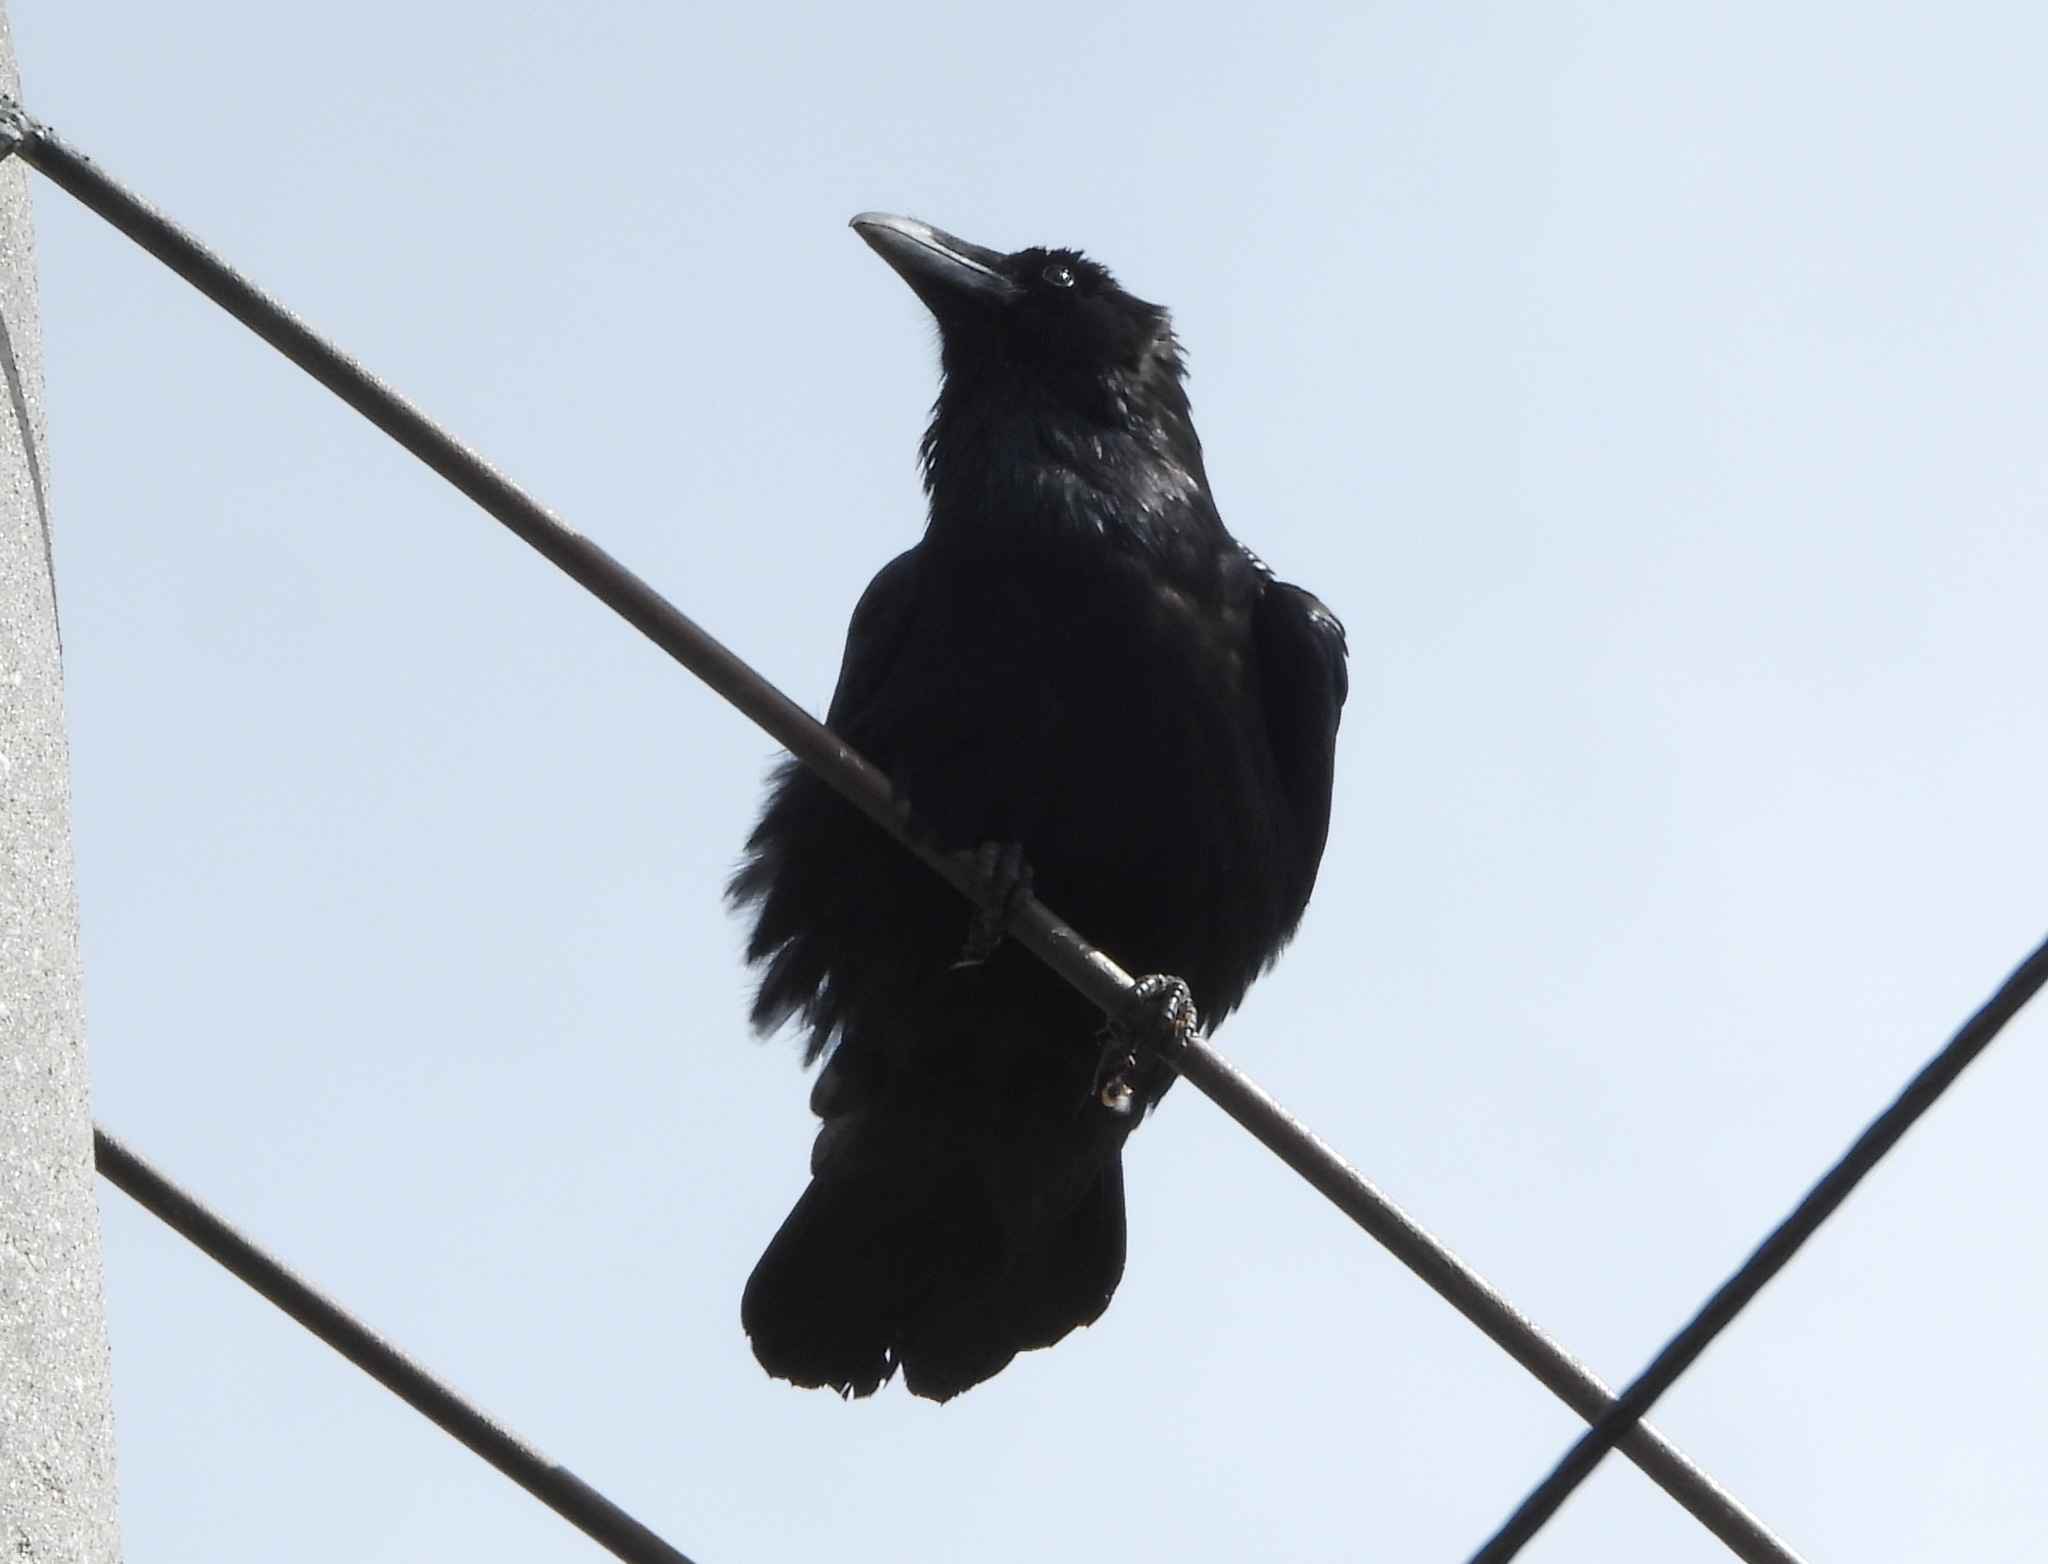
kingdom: Animalia
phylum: Chordata
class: Aves
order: Passeriformes
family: Corvidae
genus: Corvus
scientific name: Corvus corax
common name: Common raven
